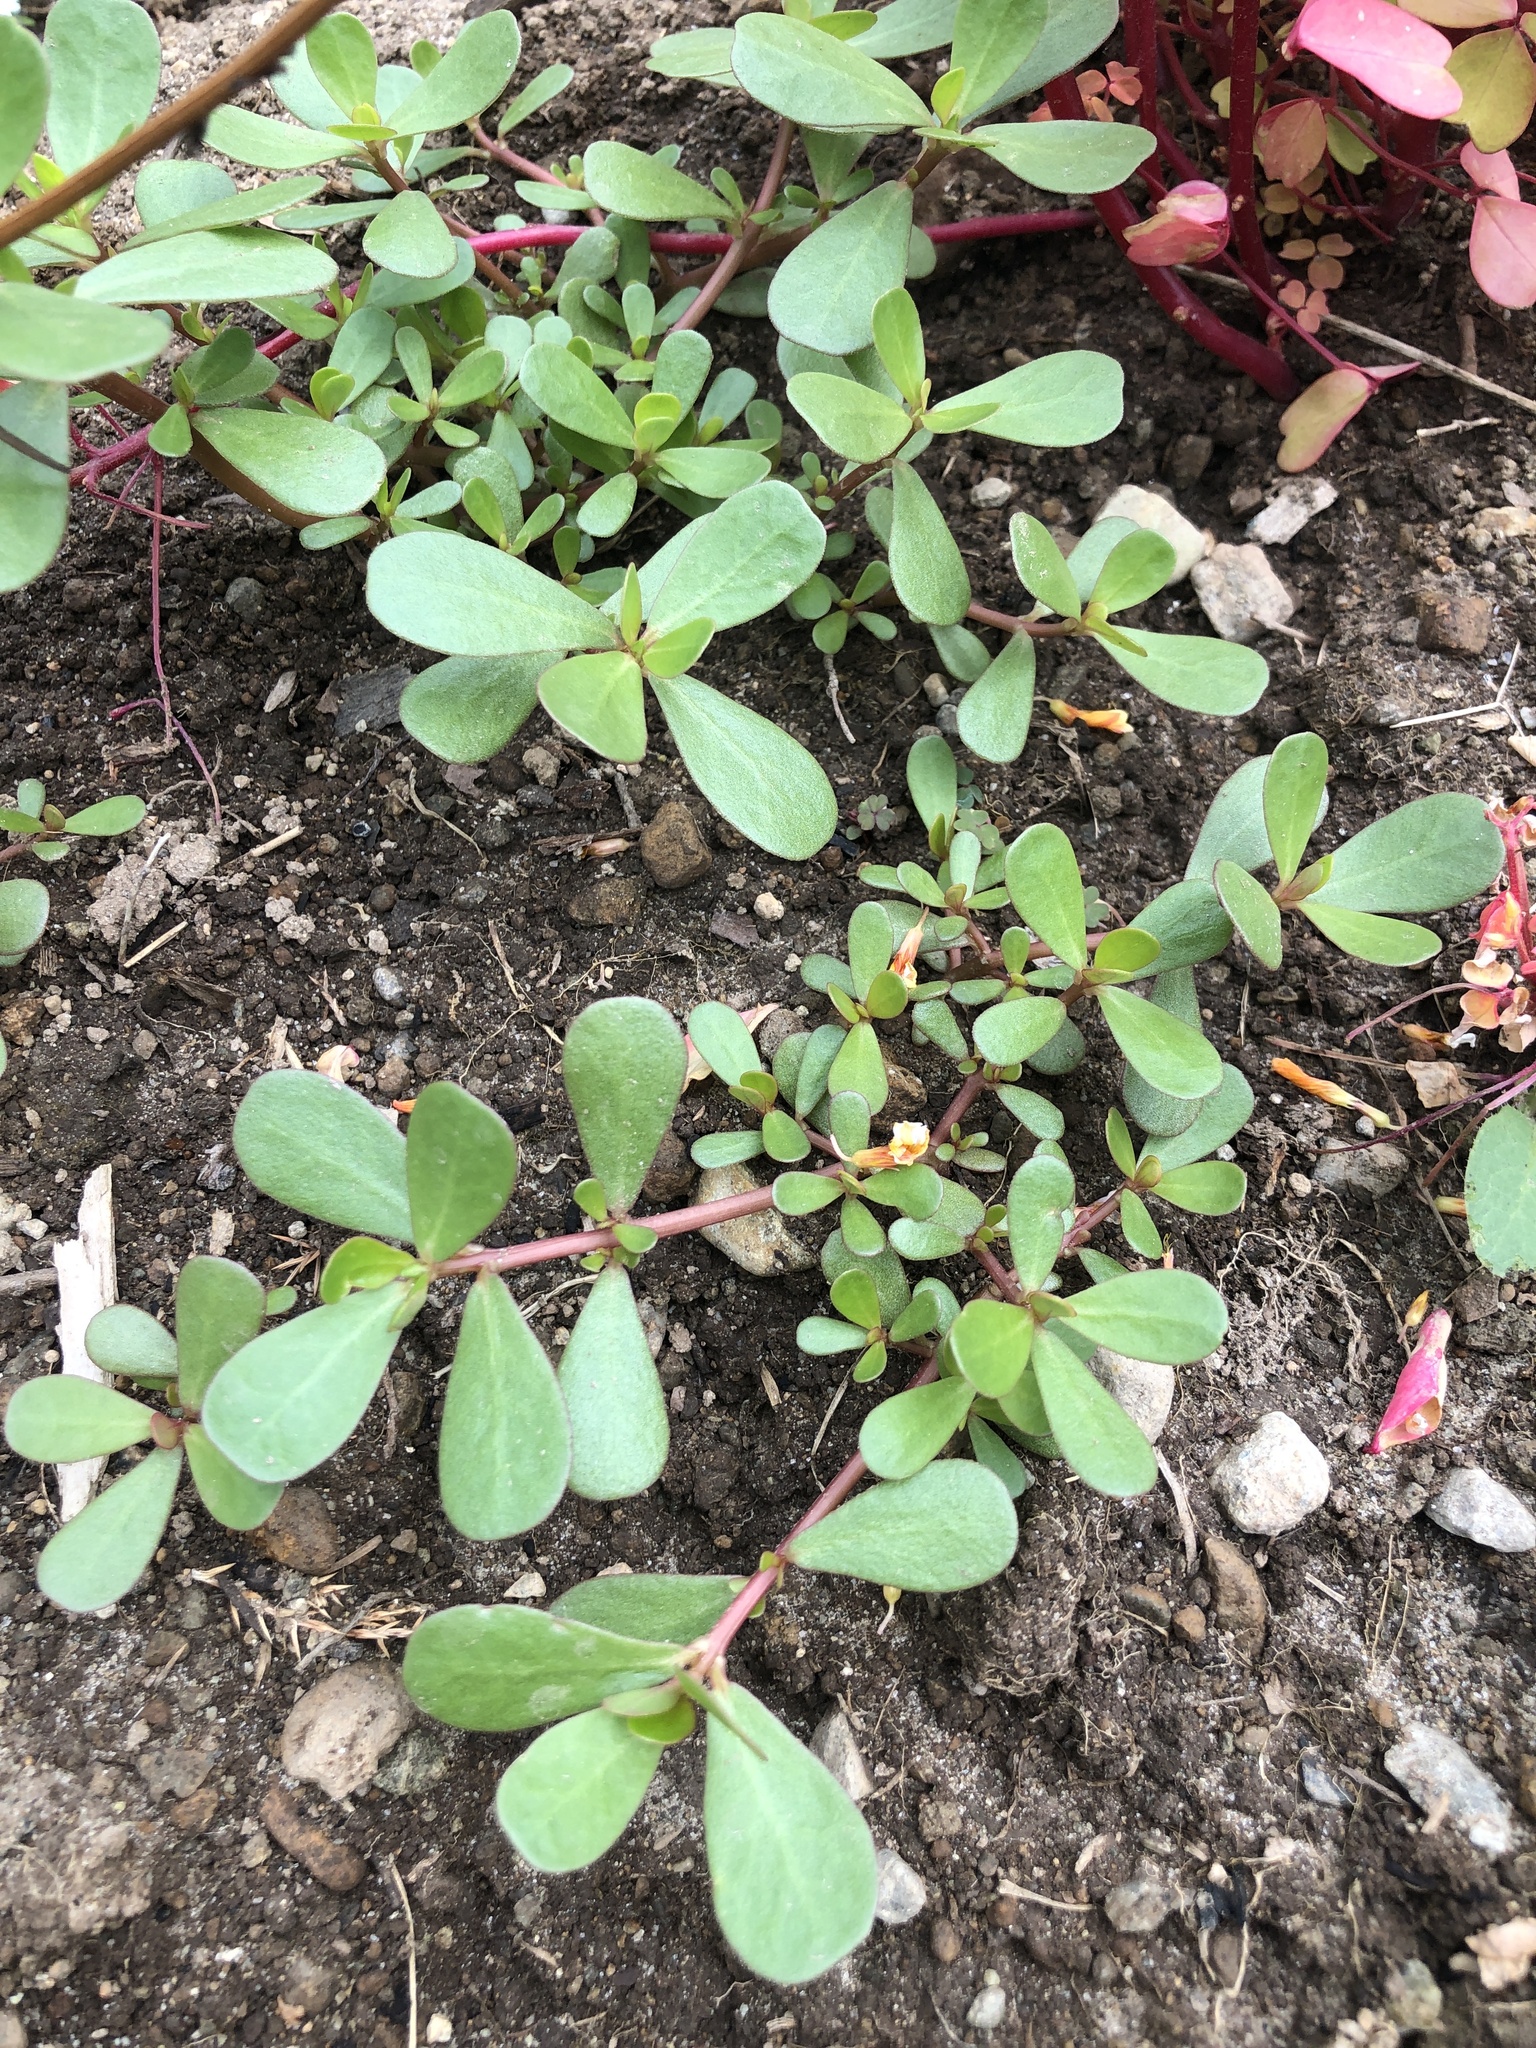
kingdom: Plantae
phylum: Tracheophyta
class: Magnoliopsida
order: Caryophyllales
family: Portulacaceae
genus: Portulaca
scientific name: Portulaca oleracea
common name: Common purslane
